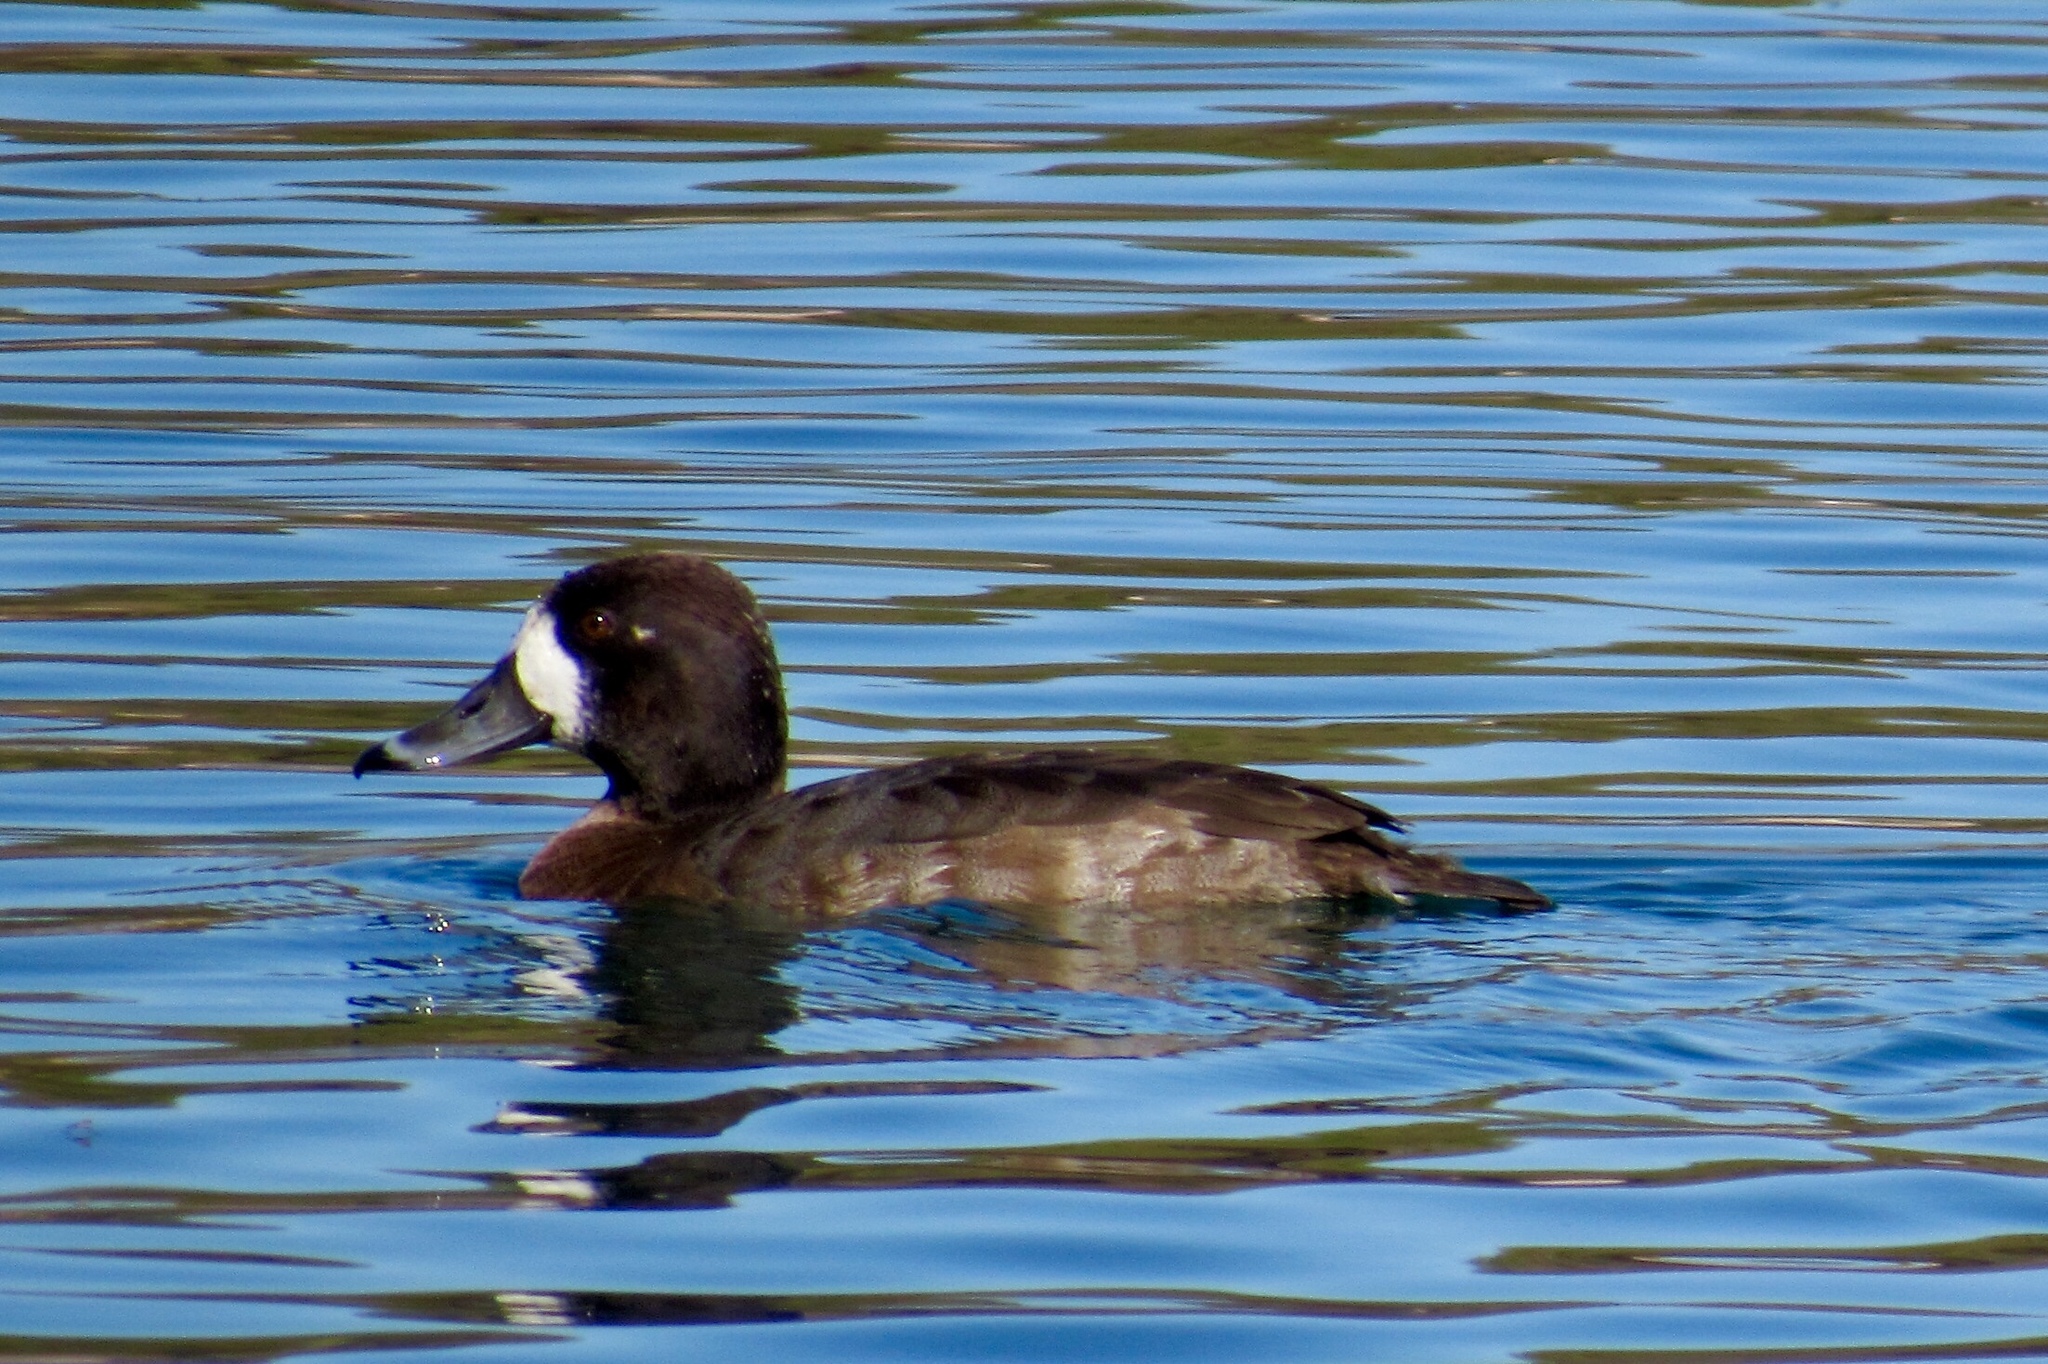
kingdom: Animalia
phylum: Chordata
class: Aves
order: Anseriformes
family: Anatidae
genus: Aythya
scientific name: Aythya marila
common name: Greater scaup
